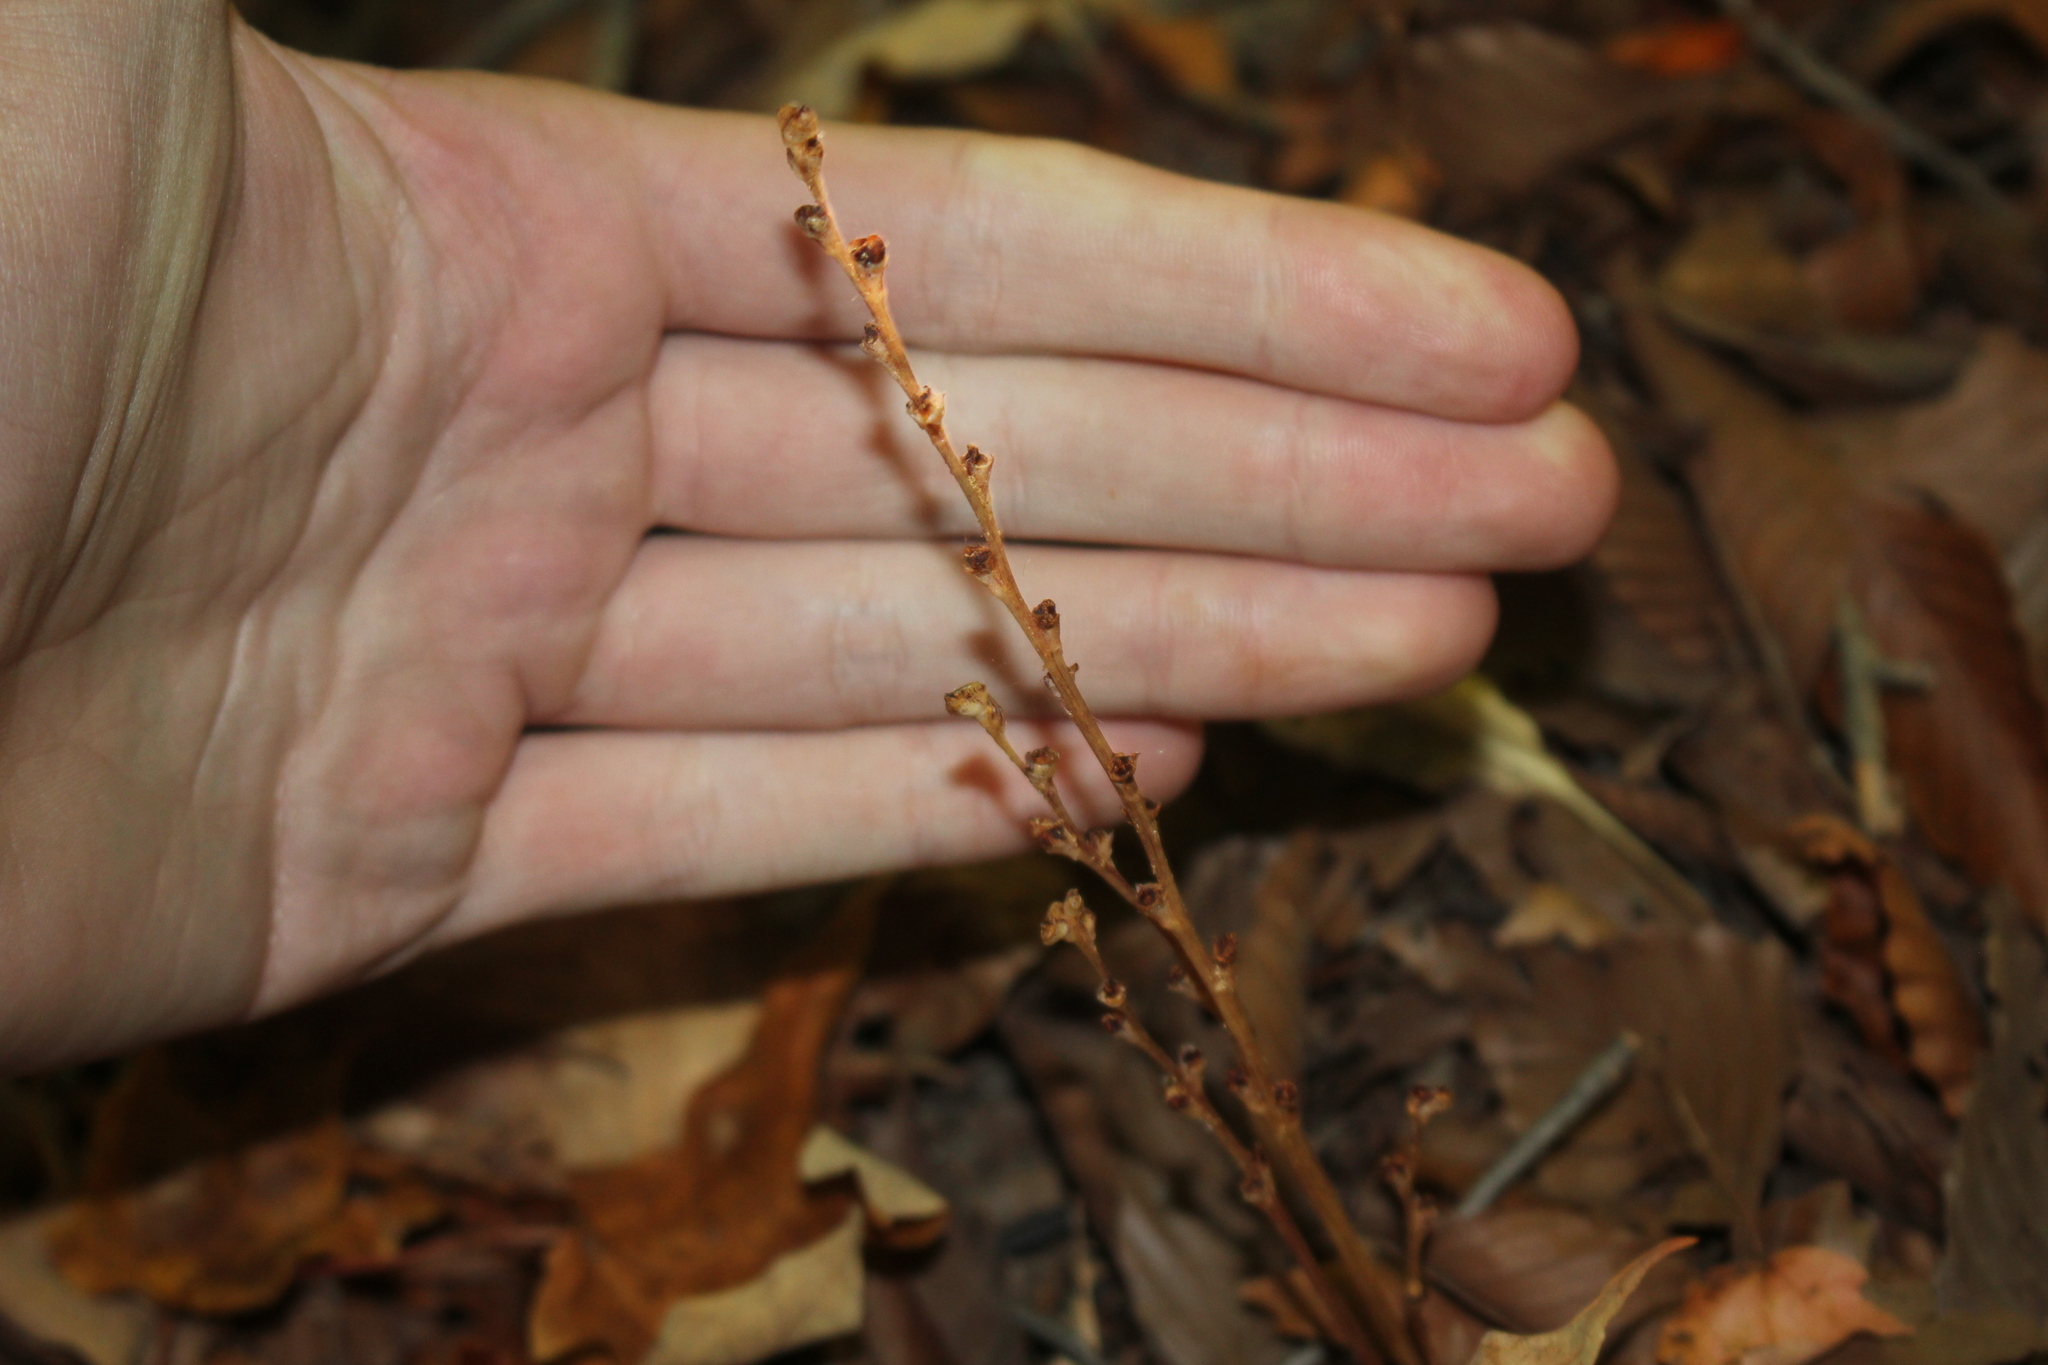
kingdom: Plantae
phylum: Tracheophyta
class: Magnoliopsida
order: Lamiales
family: Orobanchaceae
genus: Epifagus
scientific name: Epifagus virginiana
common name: Beechdrops
